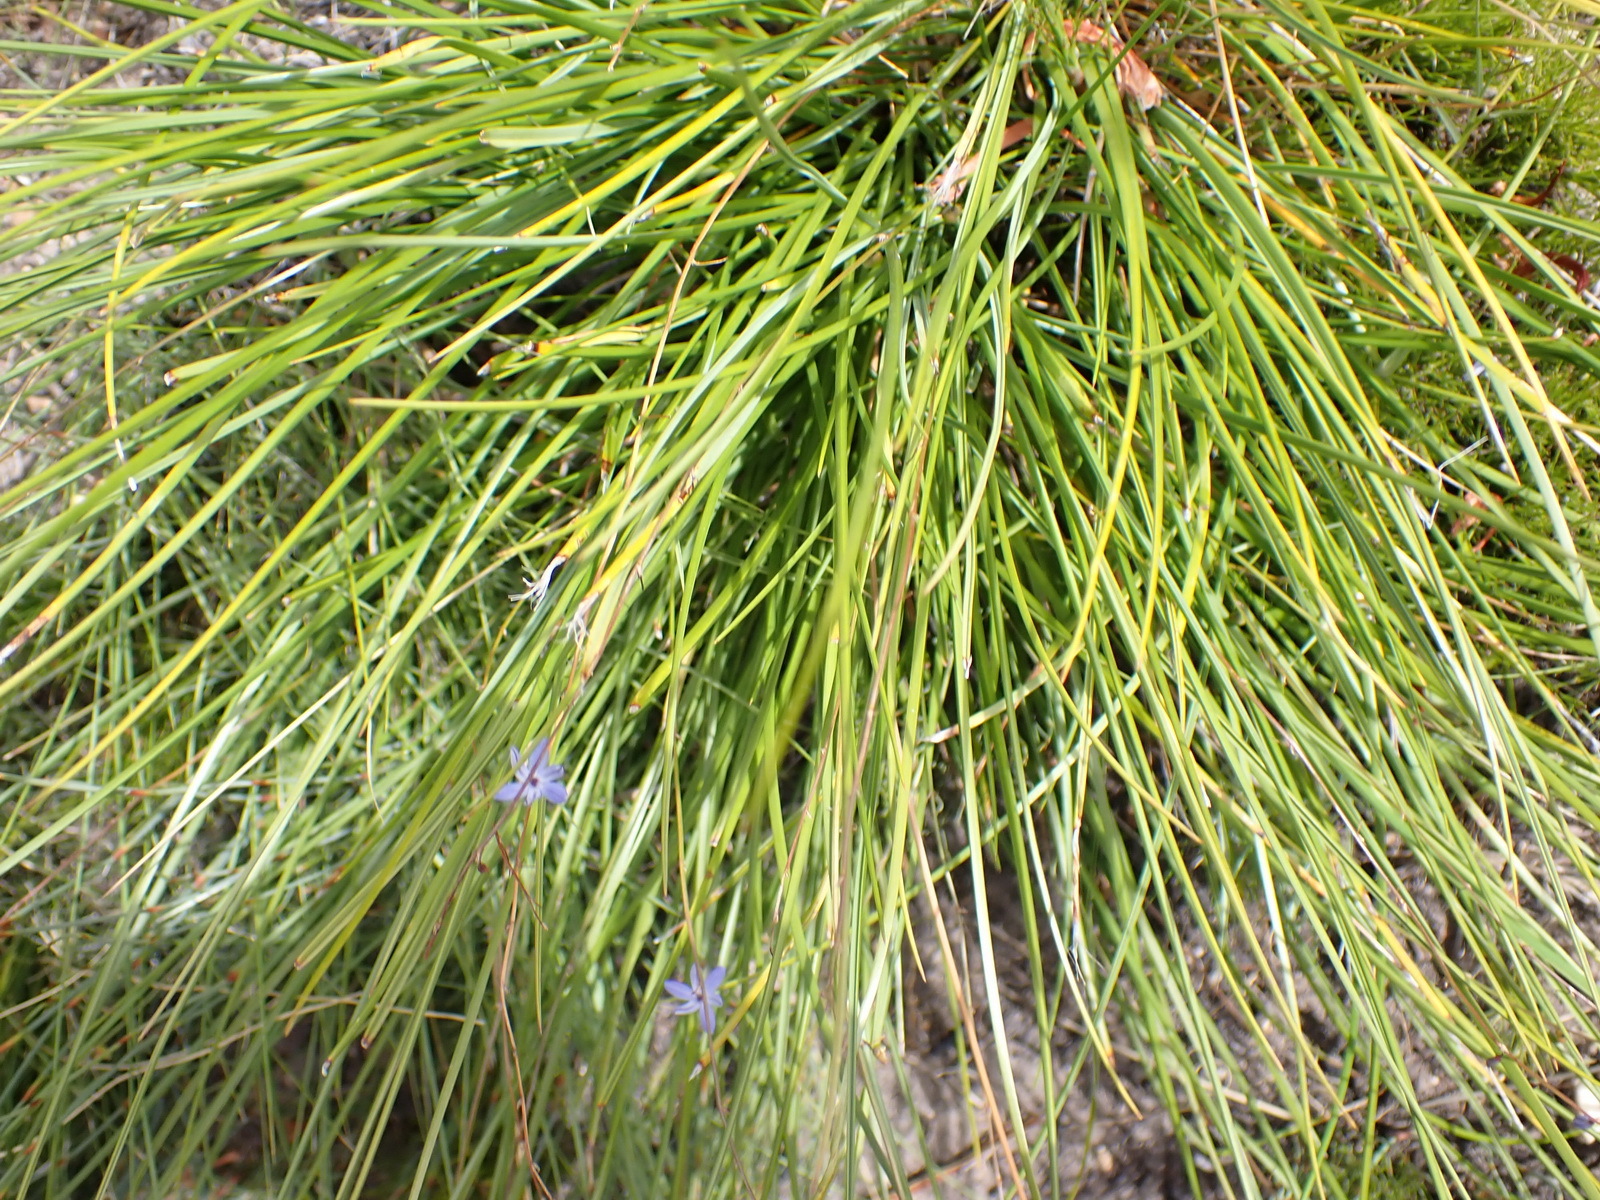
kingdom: Plantae
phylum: Tracheophyta
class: Liliopsida
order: Asparagales
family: Asphodelaceae
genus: Caesia
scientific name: Caesia contorta
